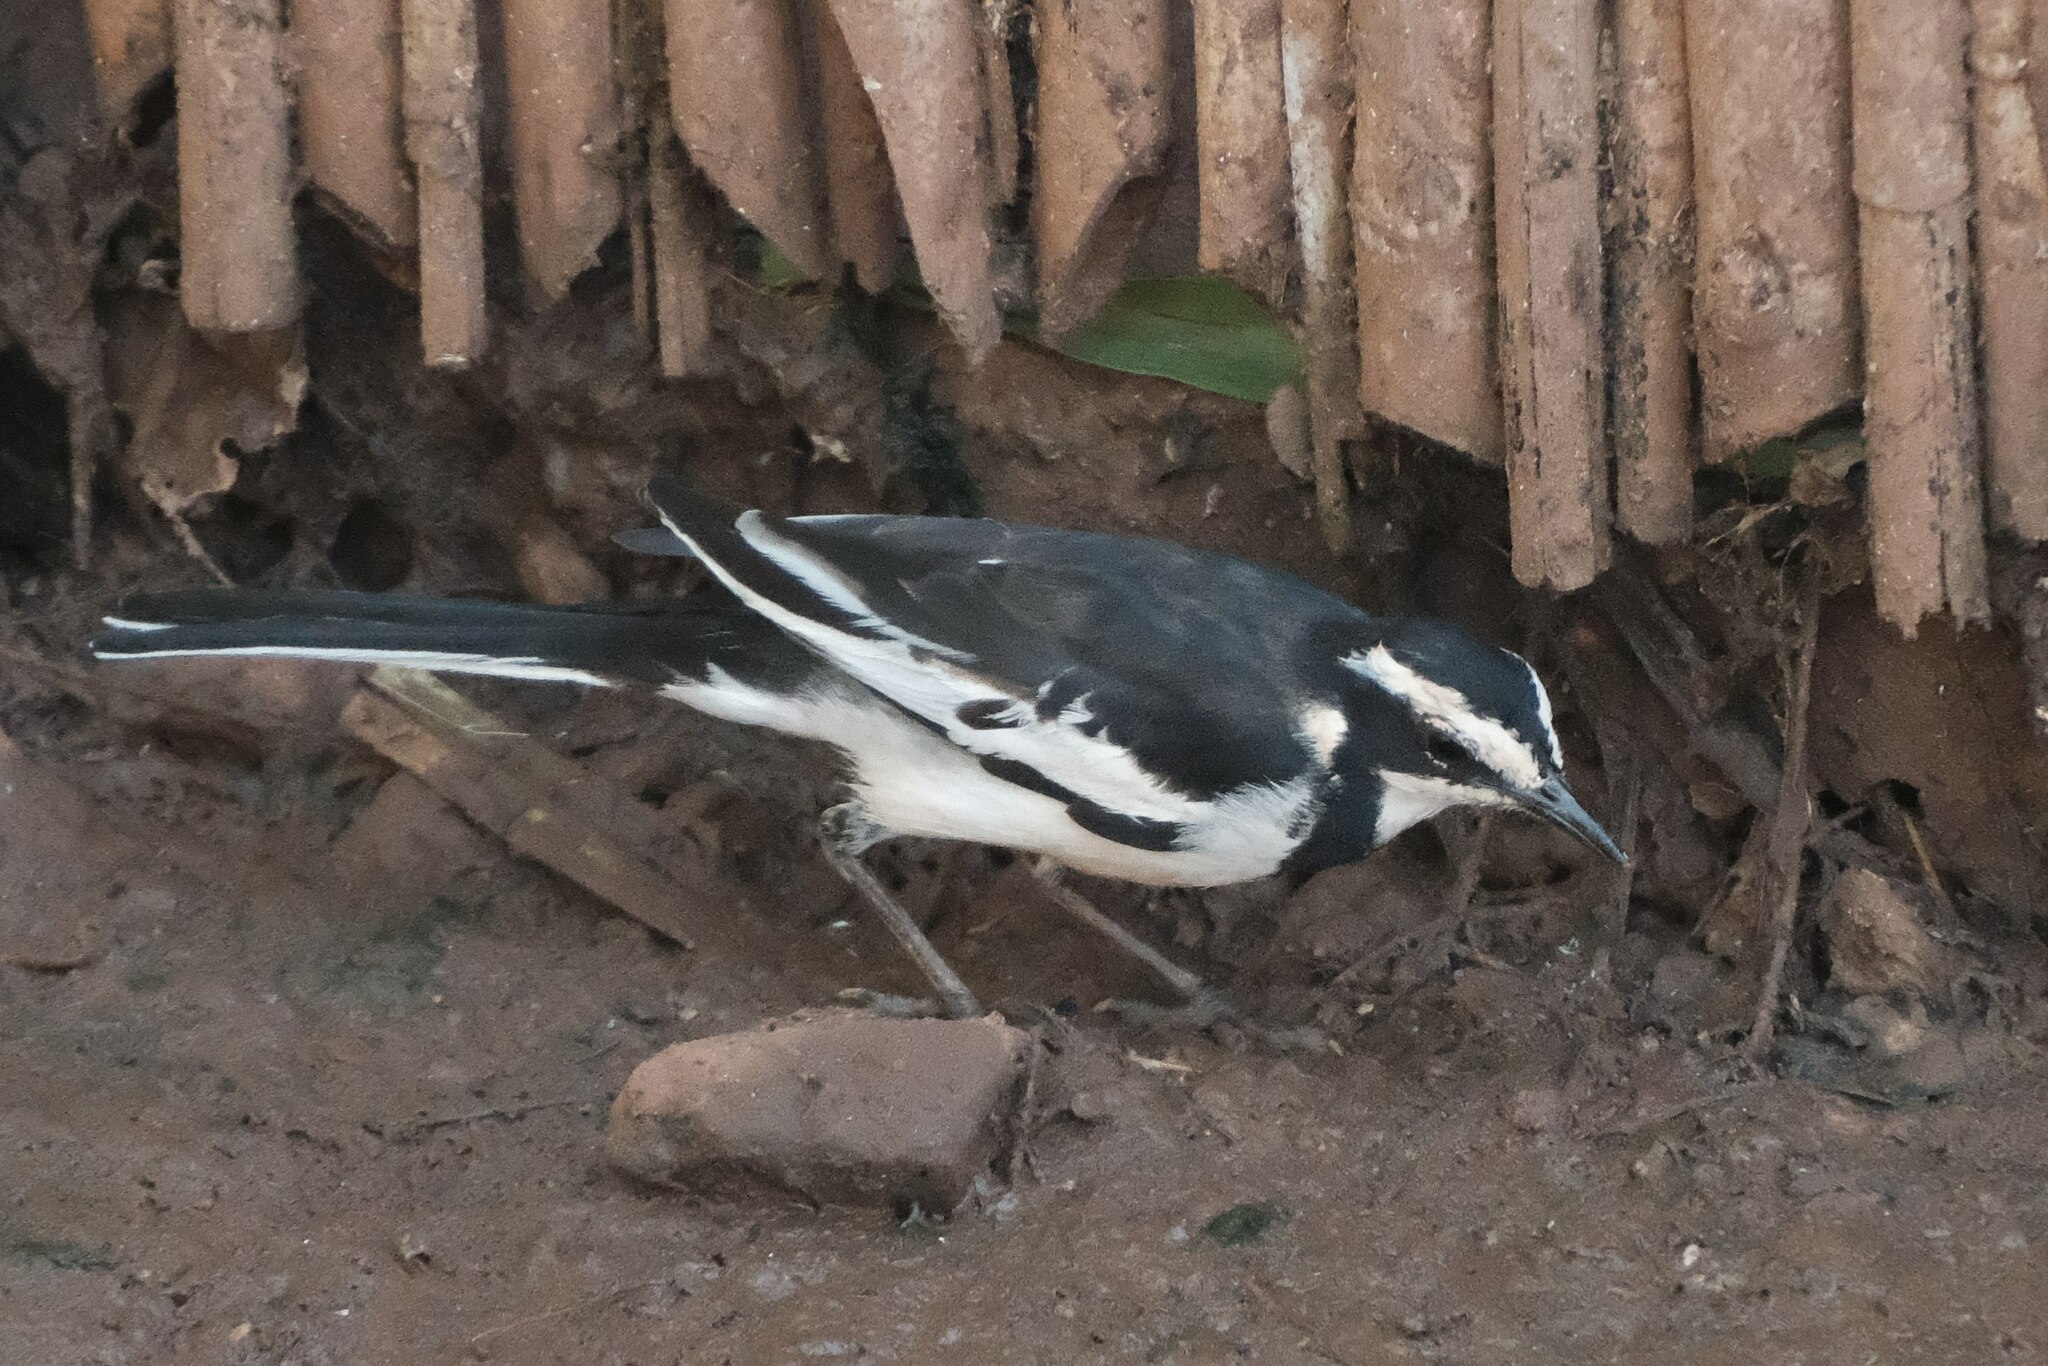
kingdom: Animalia
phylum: Chordata
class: Aves
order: Passeriformes
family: Motacillidae
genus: Motacilla
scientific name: Motacilla aguimp
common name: African pied wagtail
